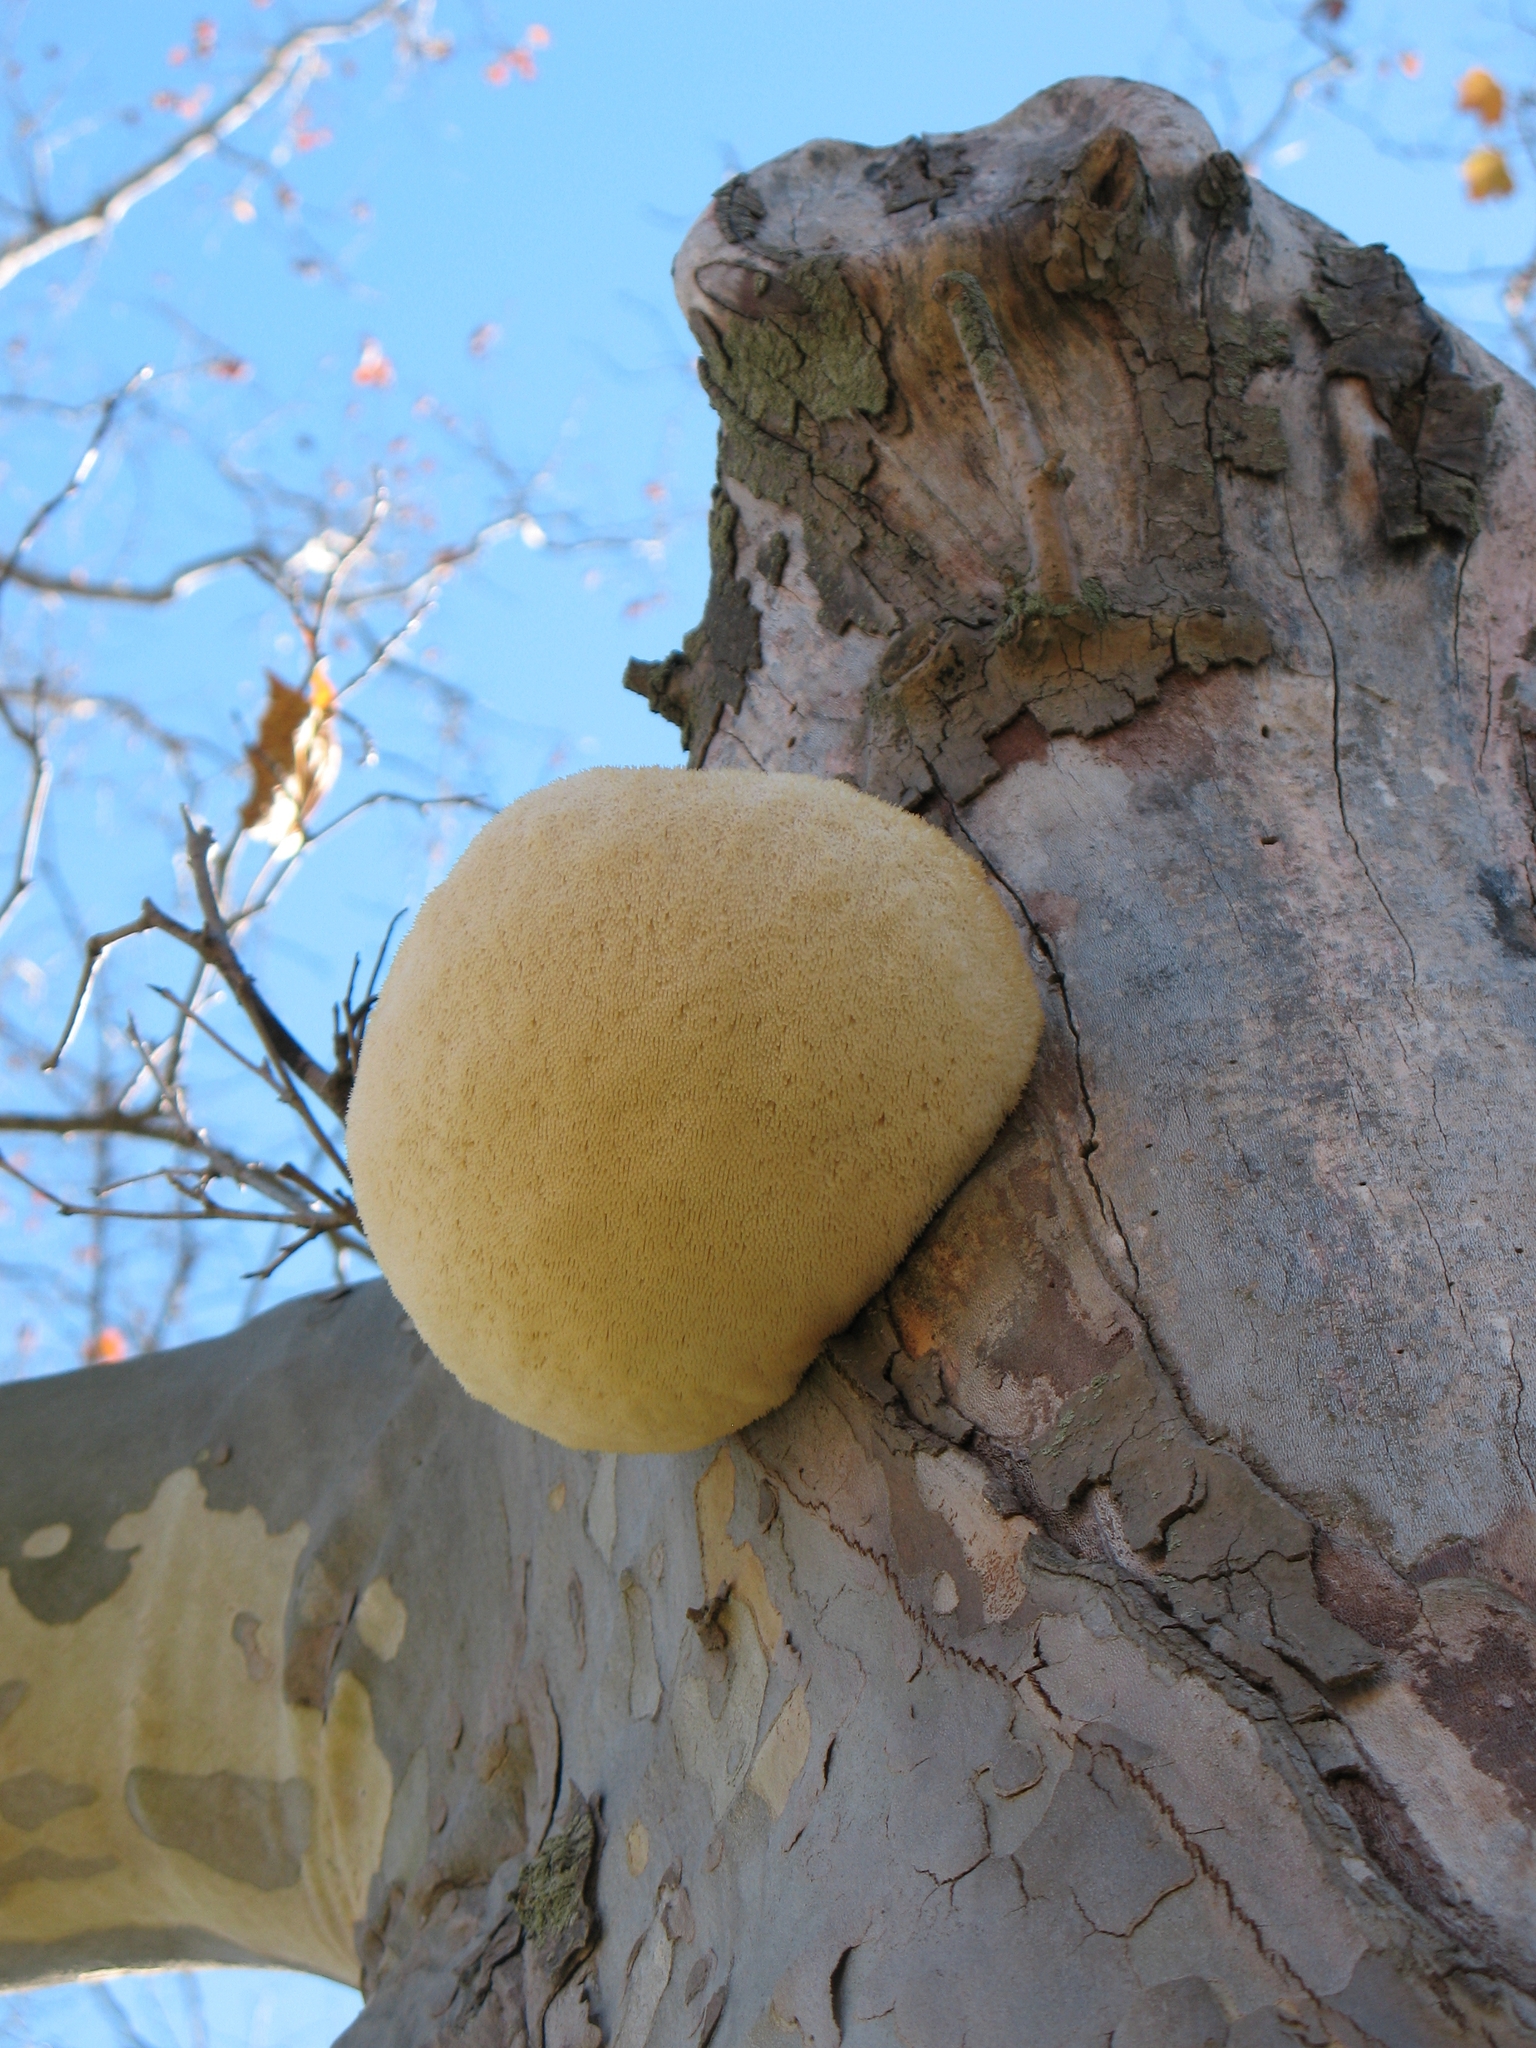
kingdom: Fungi
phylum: Basidiomycota
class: Agaricomycetes
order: Russulales
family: Hericiaceae
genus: Hericium
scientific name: Hericium erinaceus
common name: Bearded tooth
